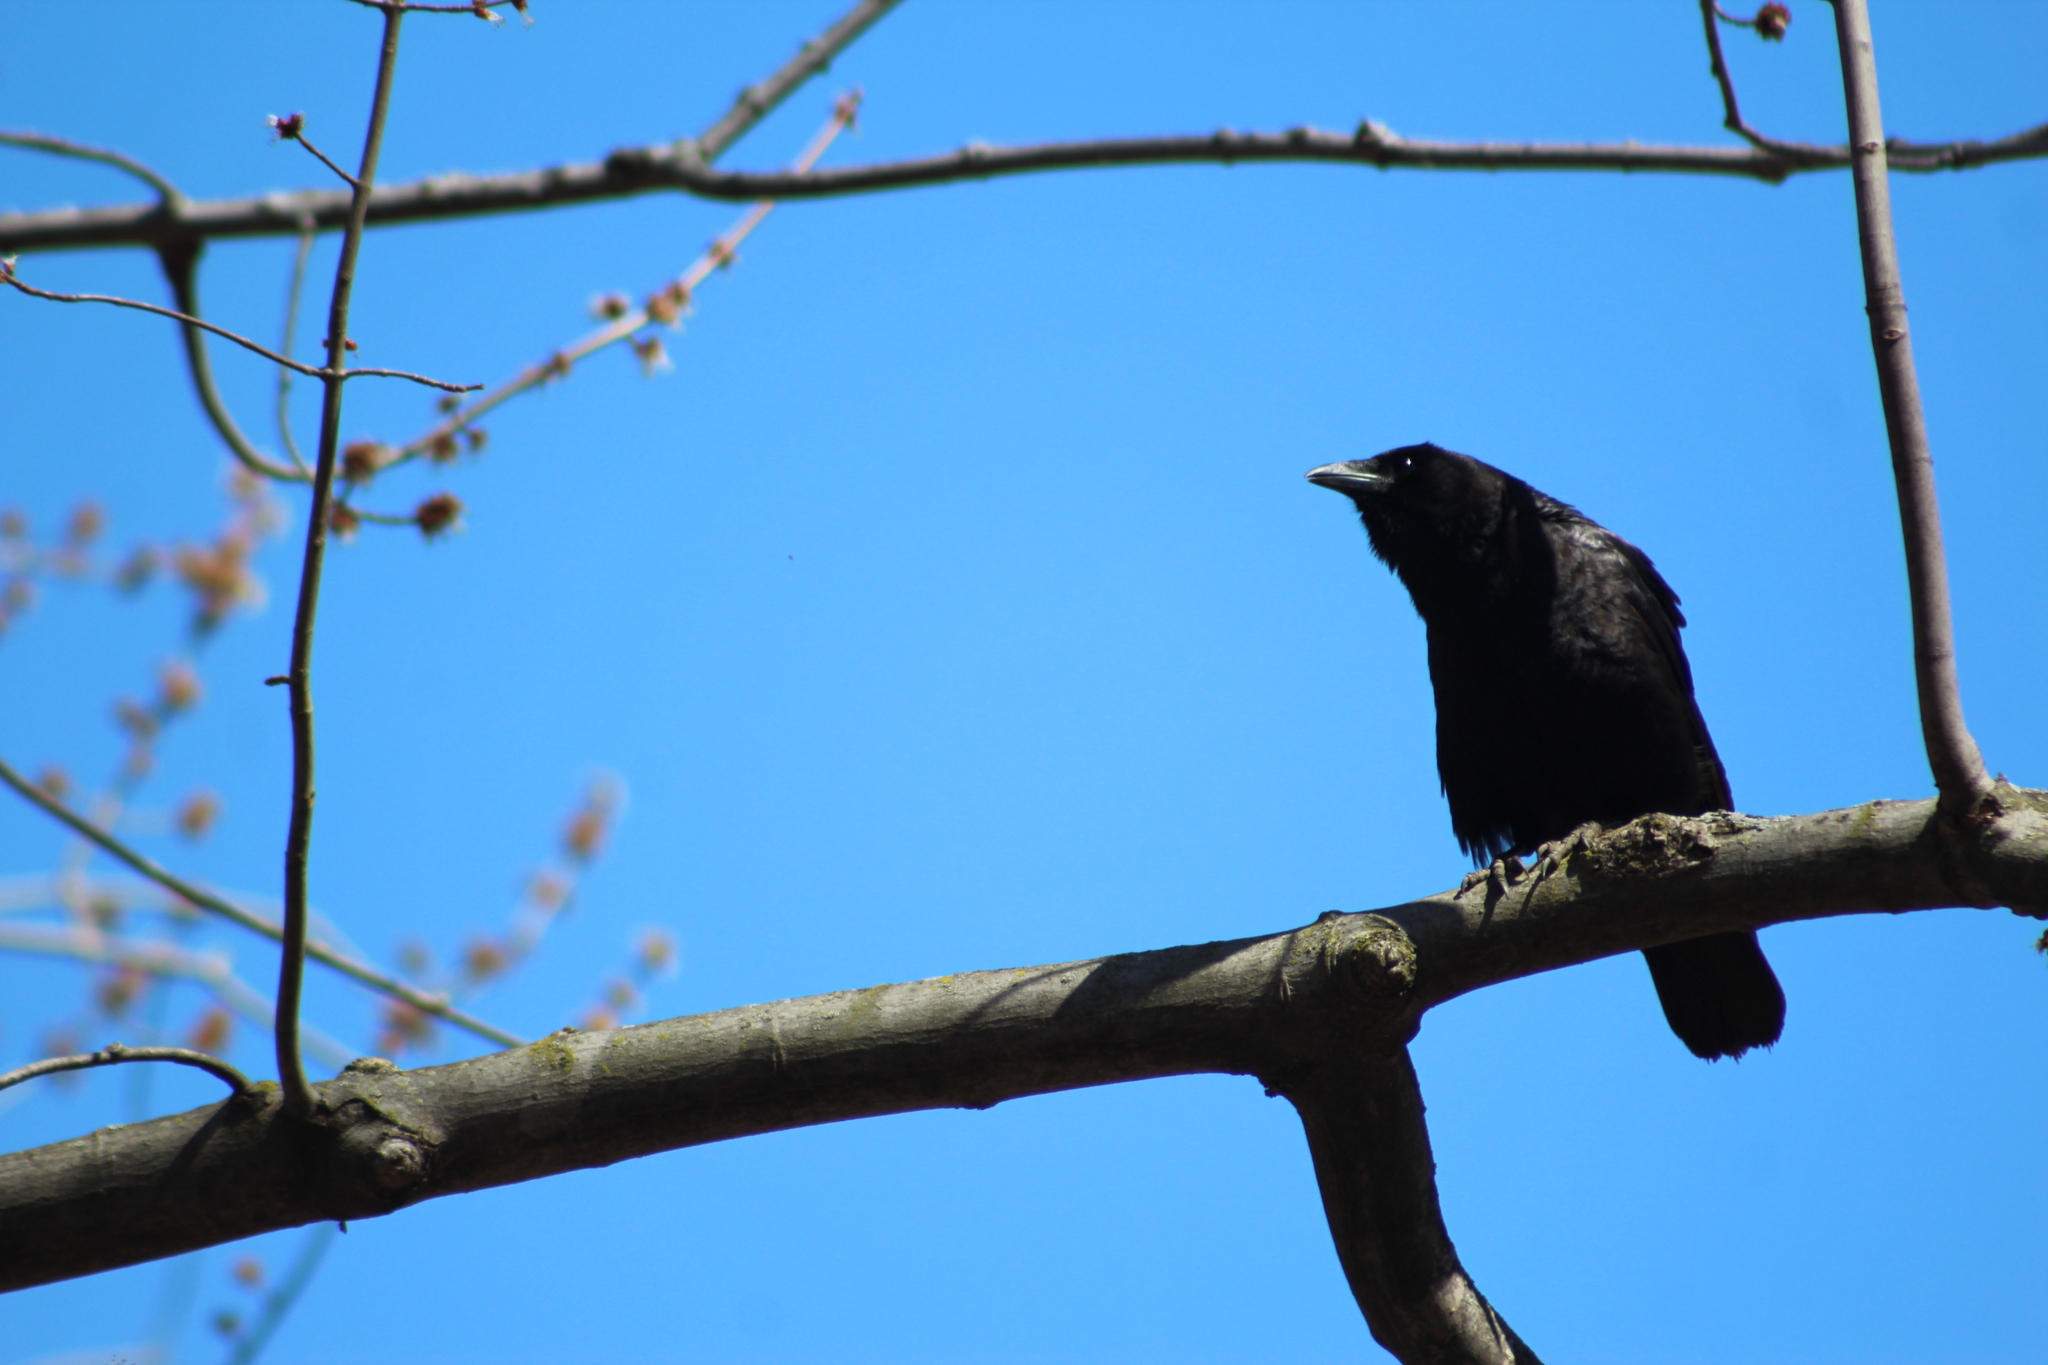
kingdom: Animalia
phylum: Chordata
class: Aves
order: Passeriformes
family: Corvidae
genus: Corvus
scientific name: Corvus brachyrhynchos
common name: American crow
